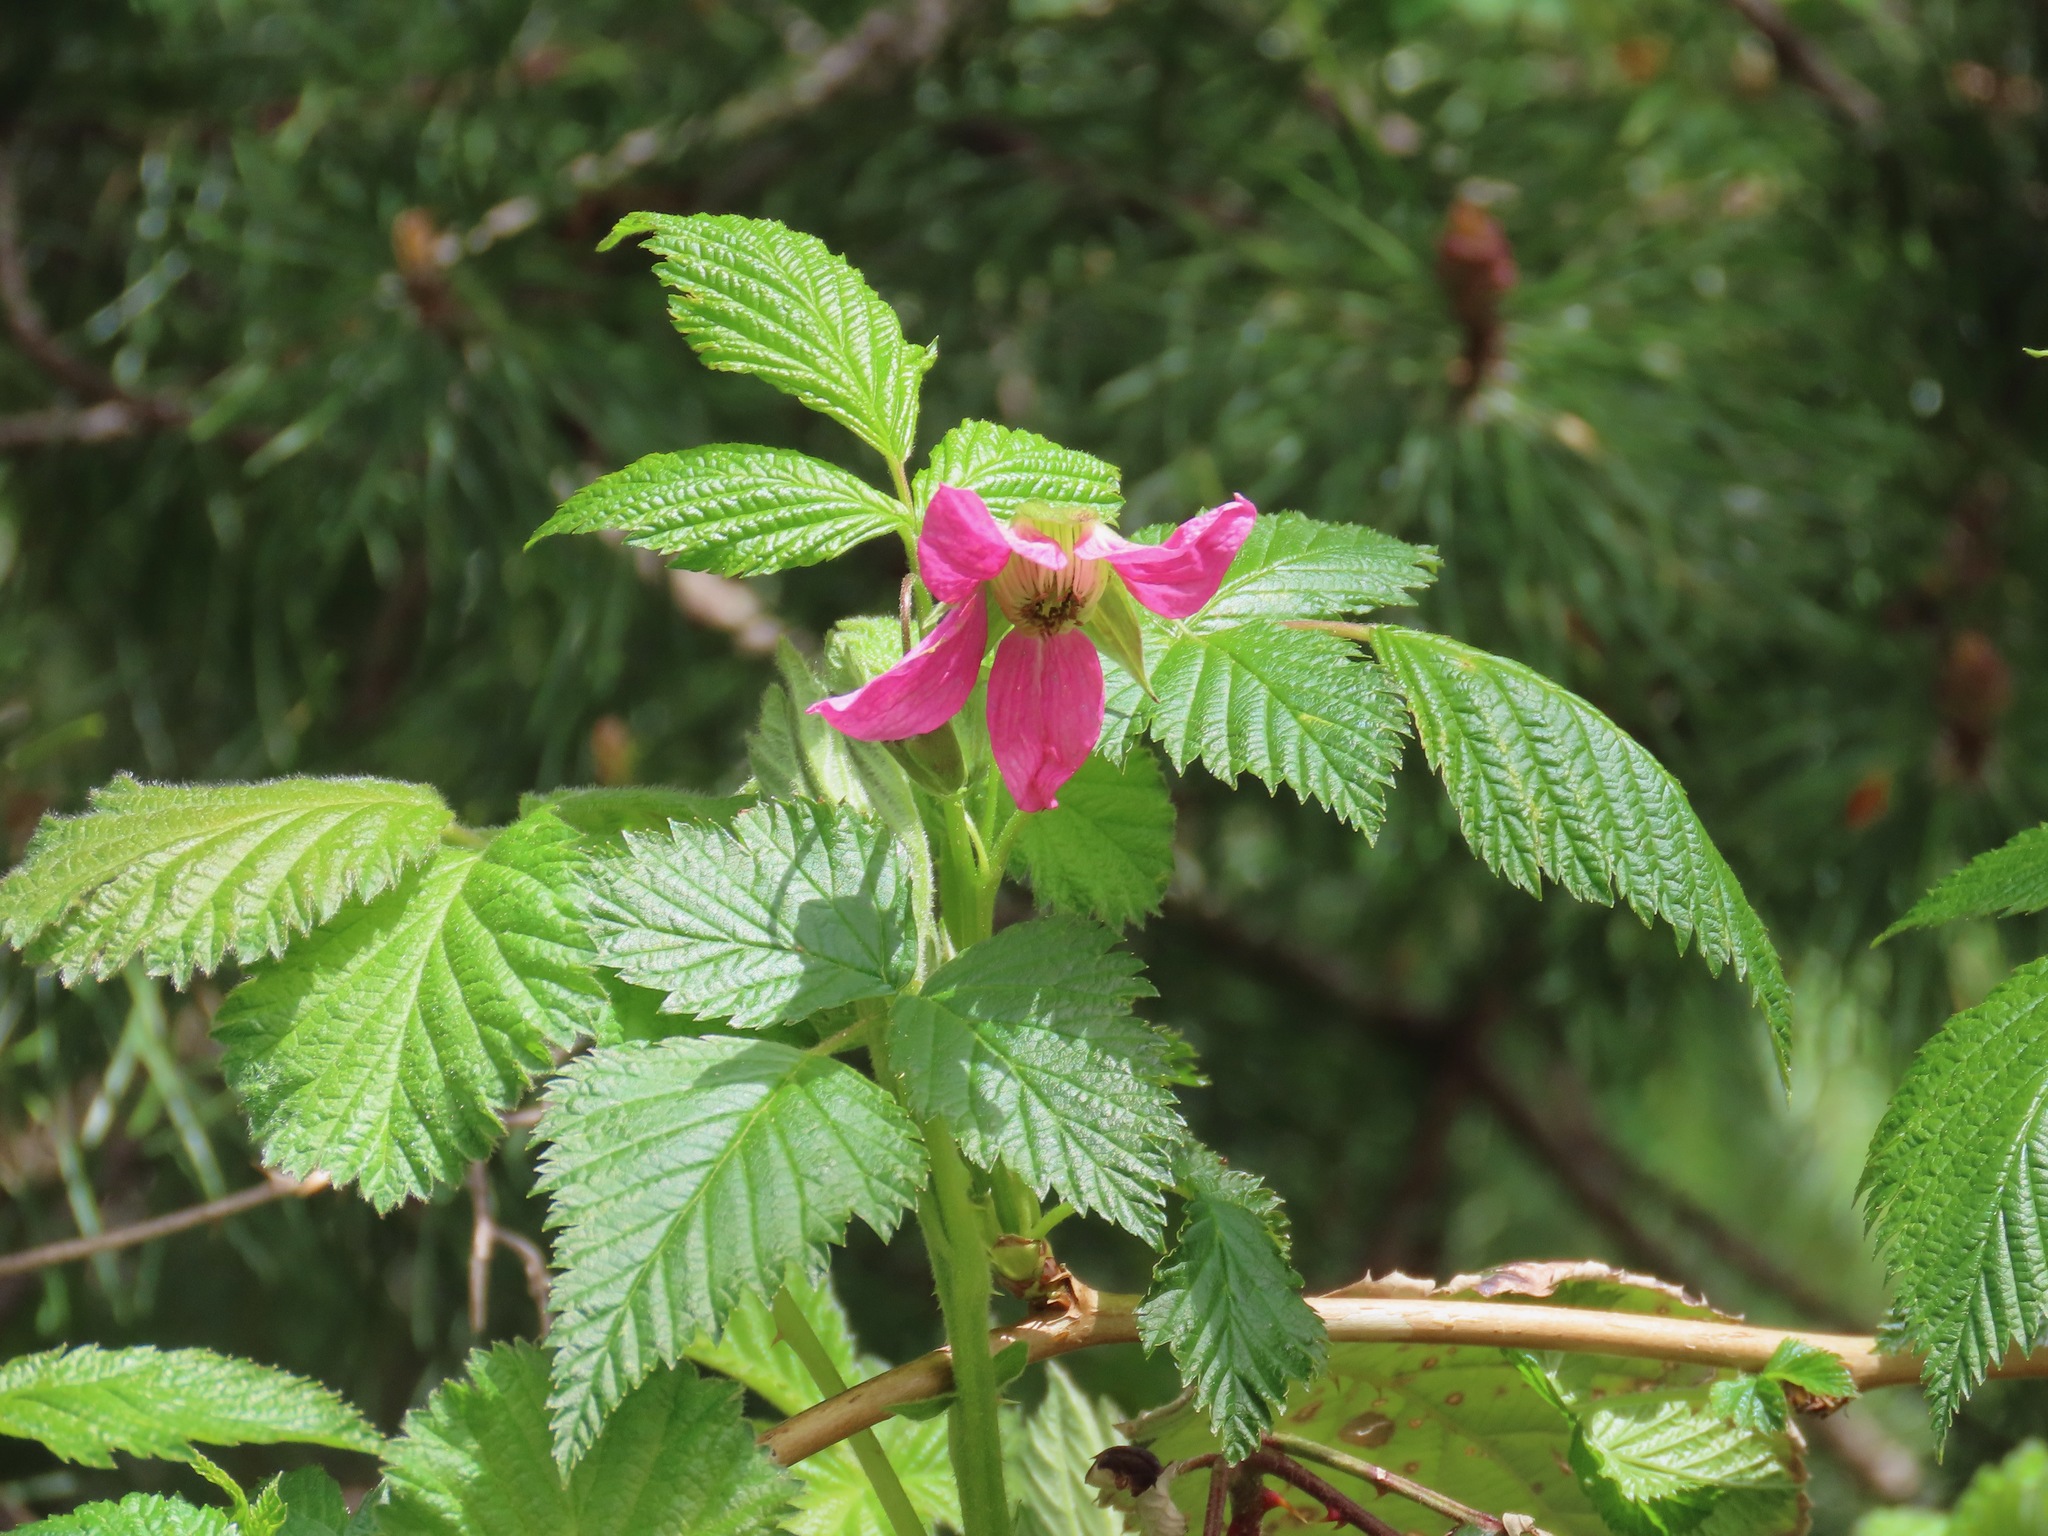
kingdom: Plantae
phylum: Tracheophyta
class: Magnoliopsida
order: Rosales
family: Rosaceae
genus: Rubus
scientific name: Rubus spectabilis
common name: Salmonberry
